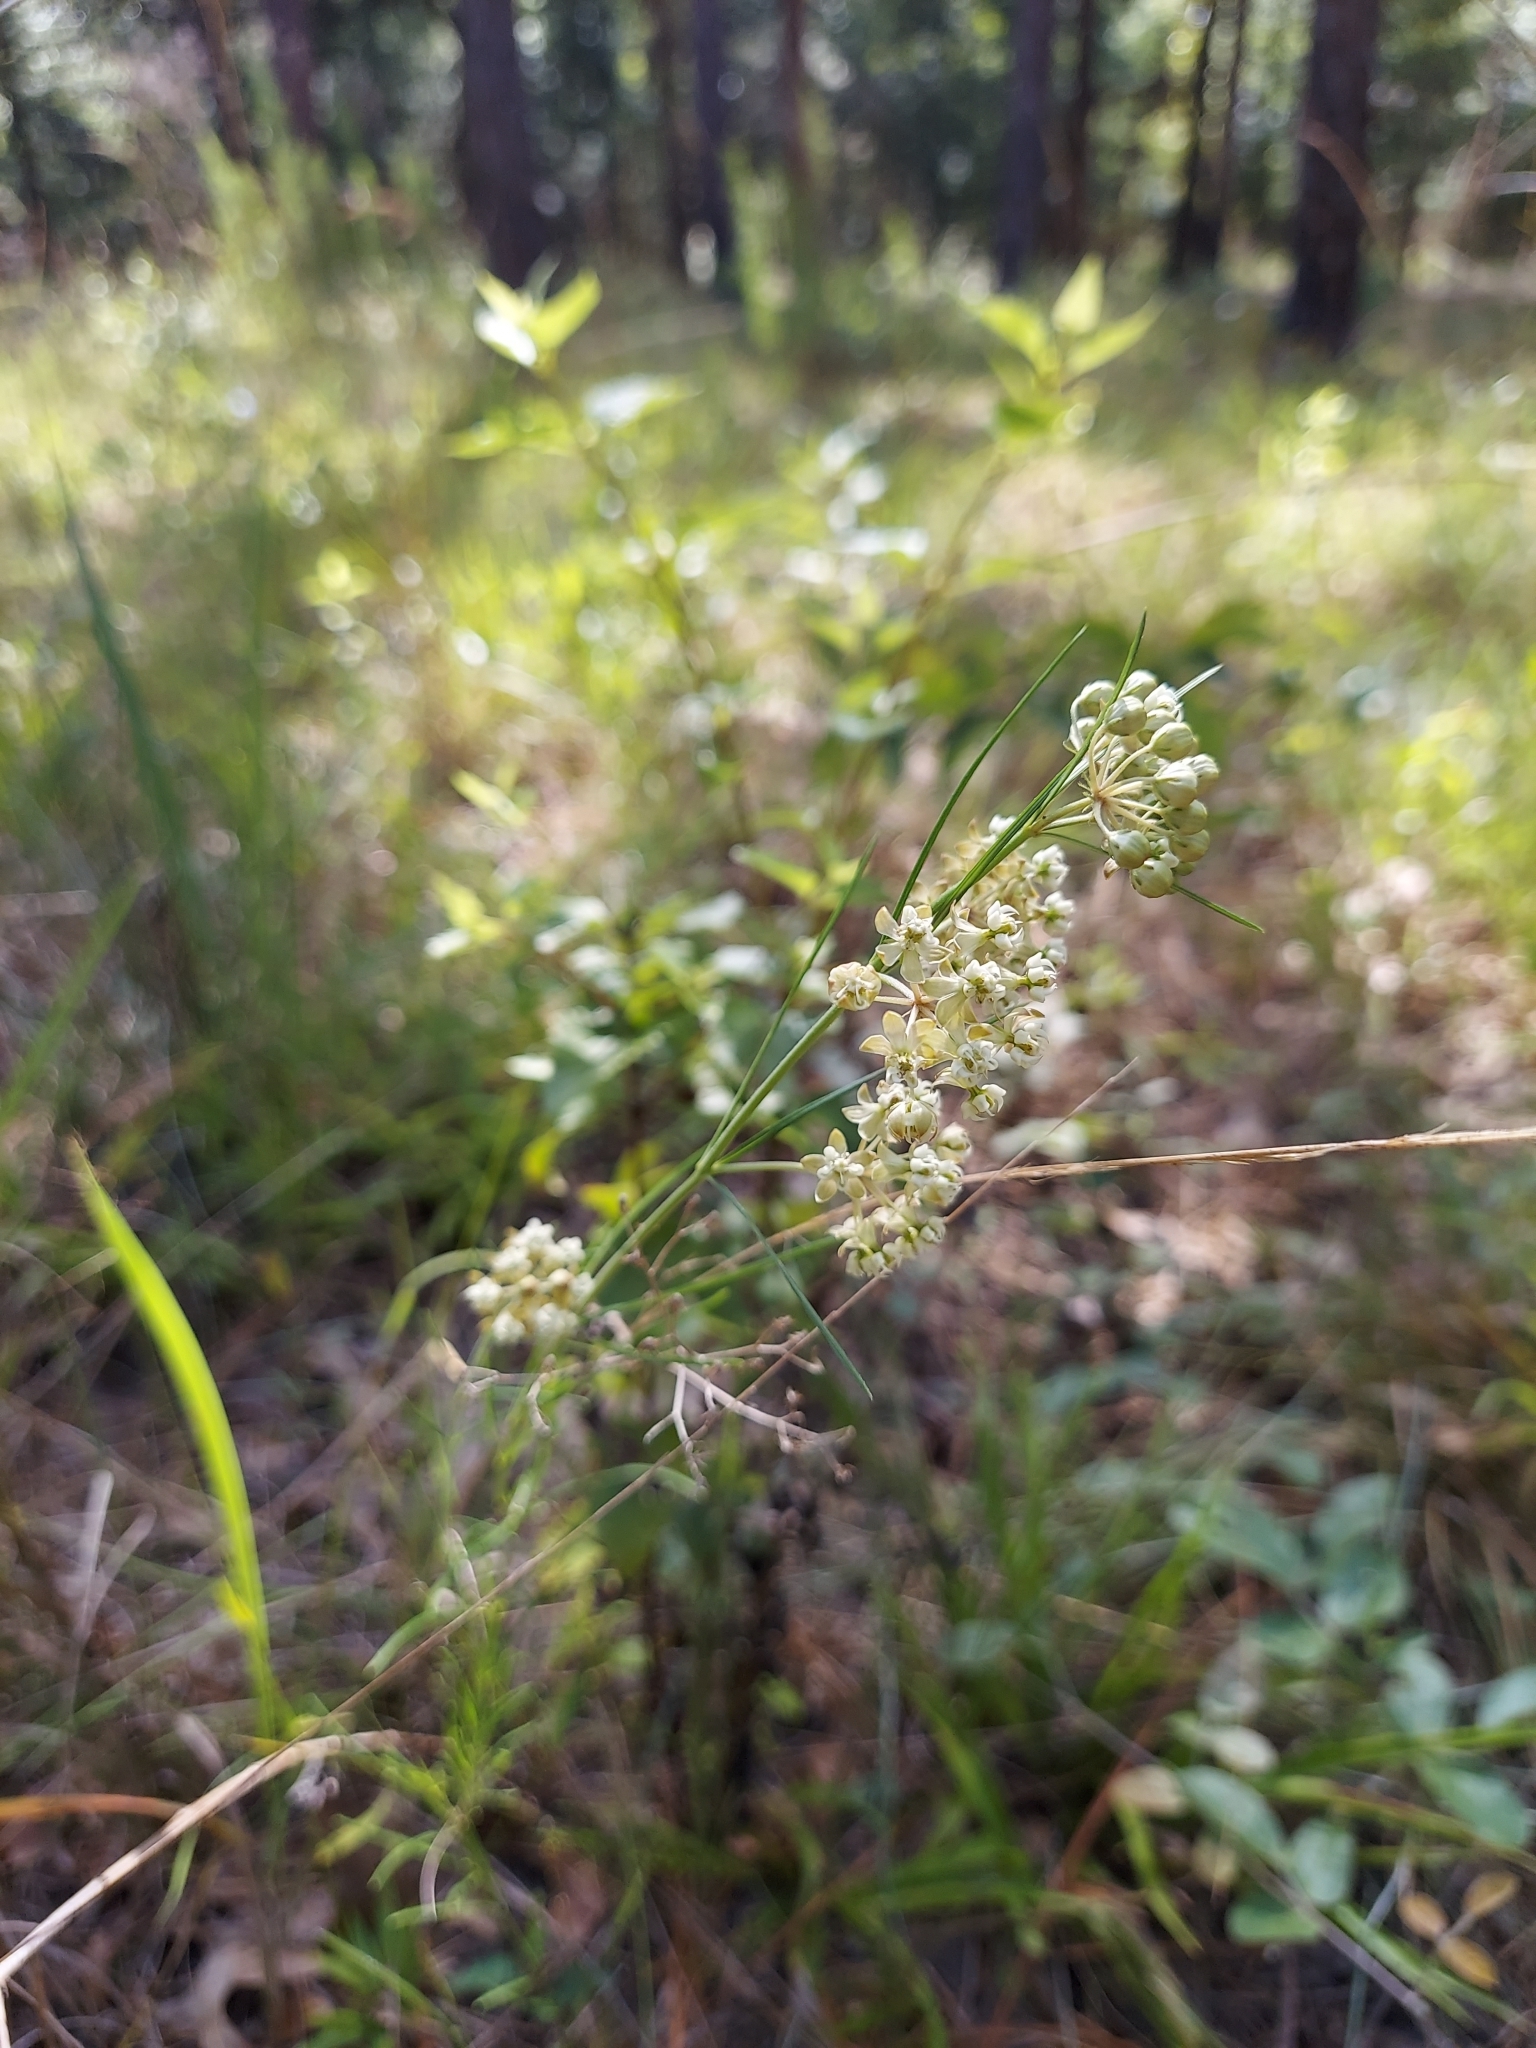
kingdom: Plantae
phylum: Tracheophyta
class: Magnoliopsida
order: Gentianales
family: Apocynaceae
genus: Asclepias
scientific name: Asclepias verticillata
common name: Eastern whorled milkweed
